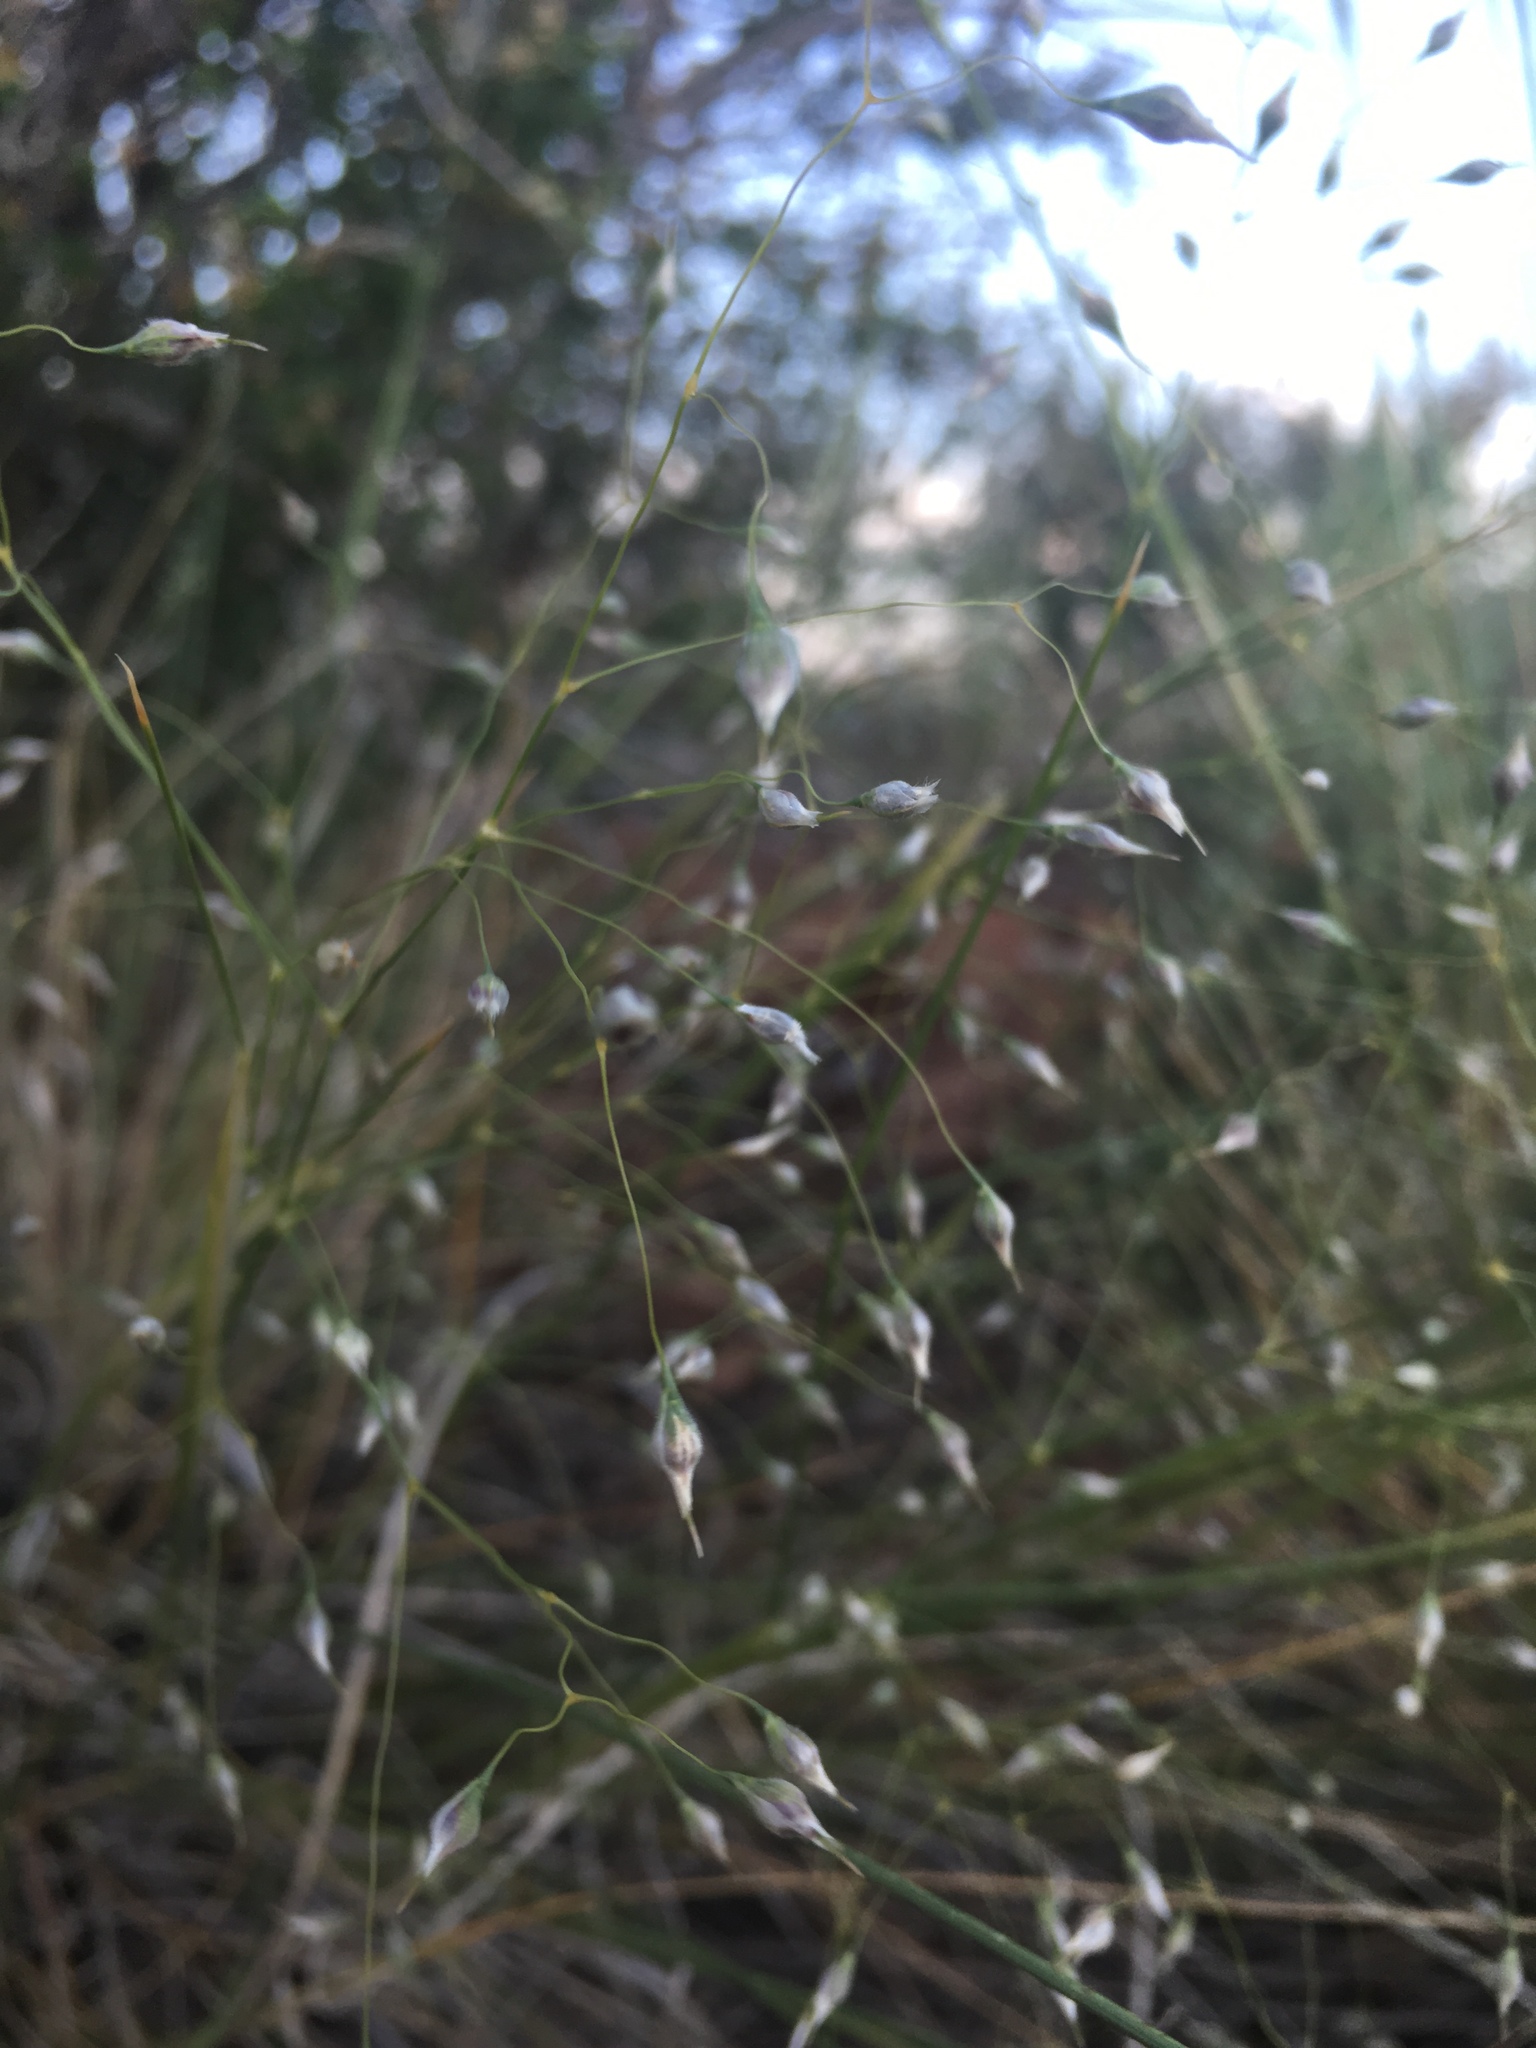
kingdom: Plantae
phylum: Tracheophyta
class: Liliopsida
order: Poales
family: Poaceae
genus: Eriocoma
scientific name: Eriocoma hymenoides
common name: Indian mountain ricegrass
